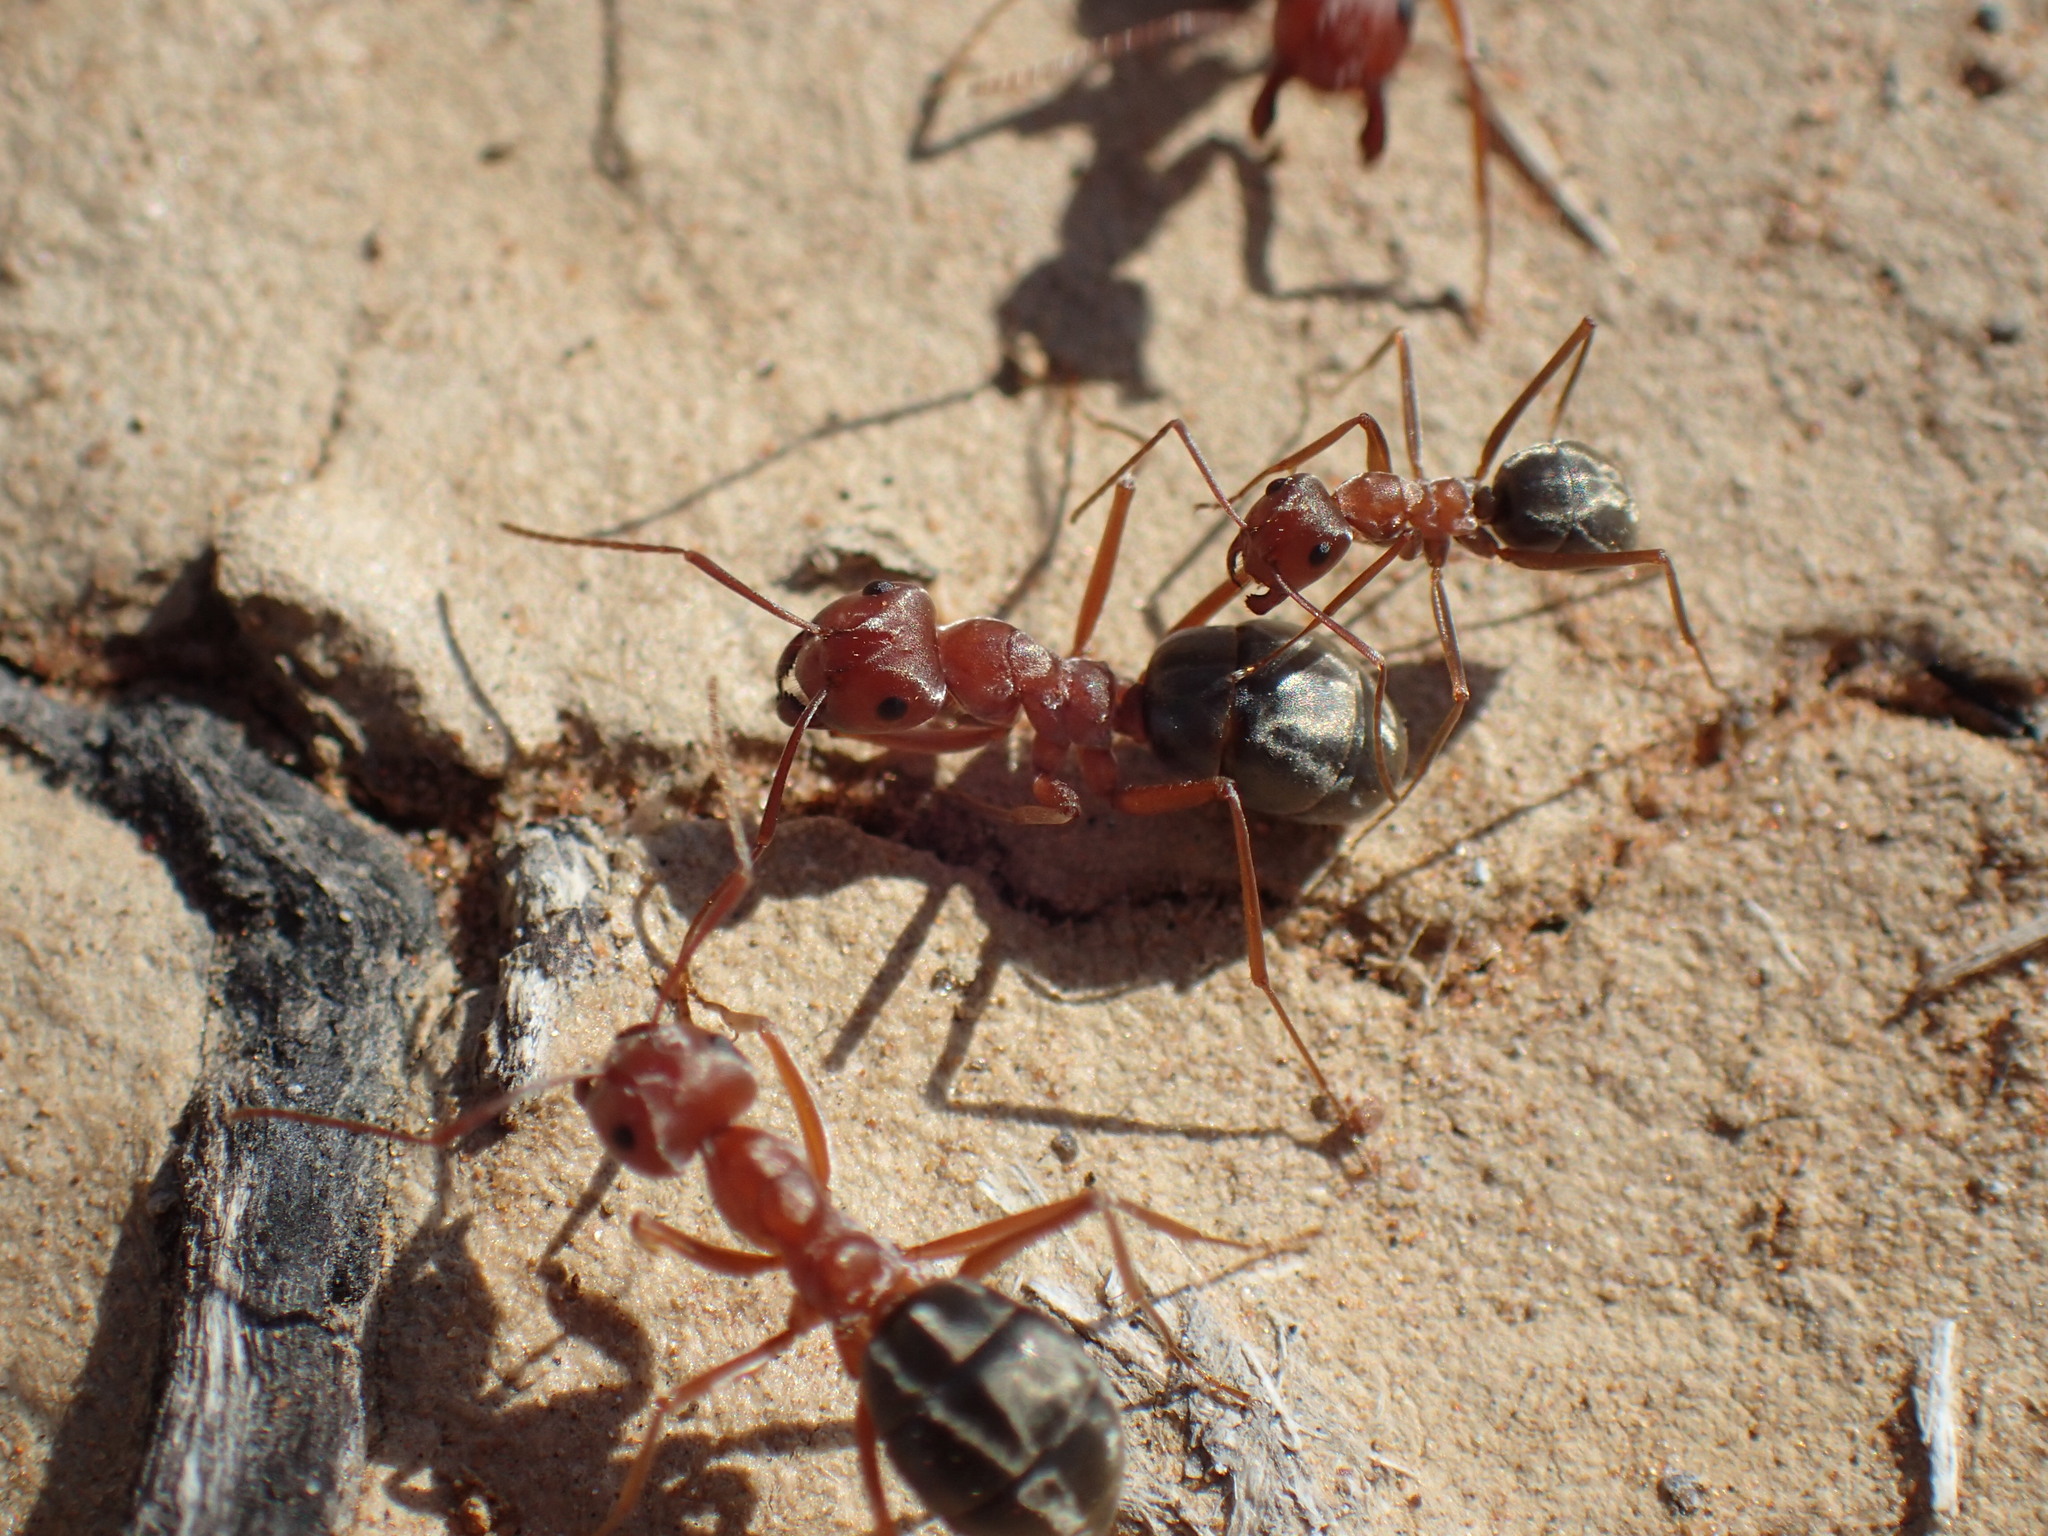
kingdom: Animalia
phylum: Arthropoda
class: Insecta
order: Hymenoptera
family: Formicidae
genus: Anoplolepis
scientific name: Anoplolepis custodiens
